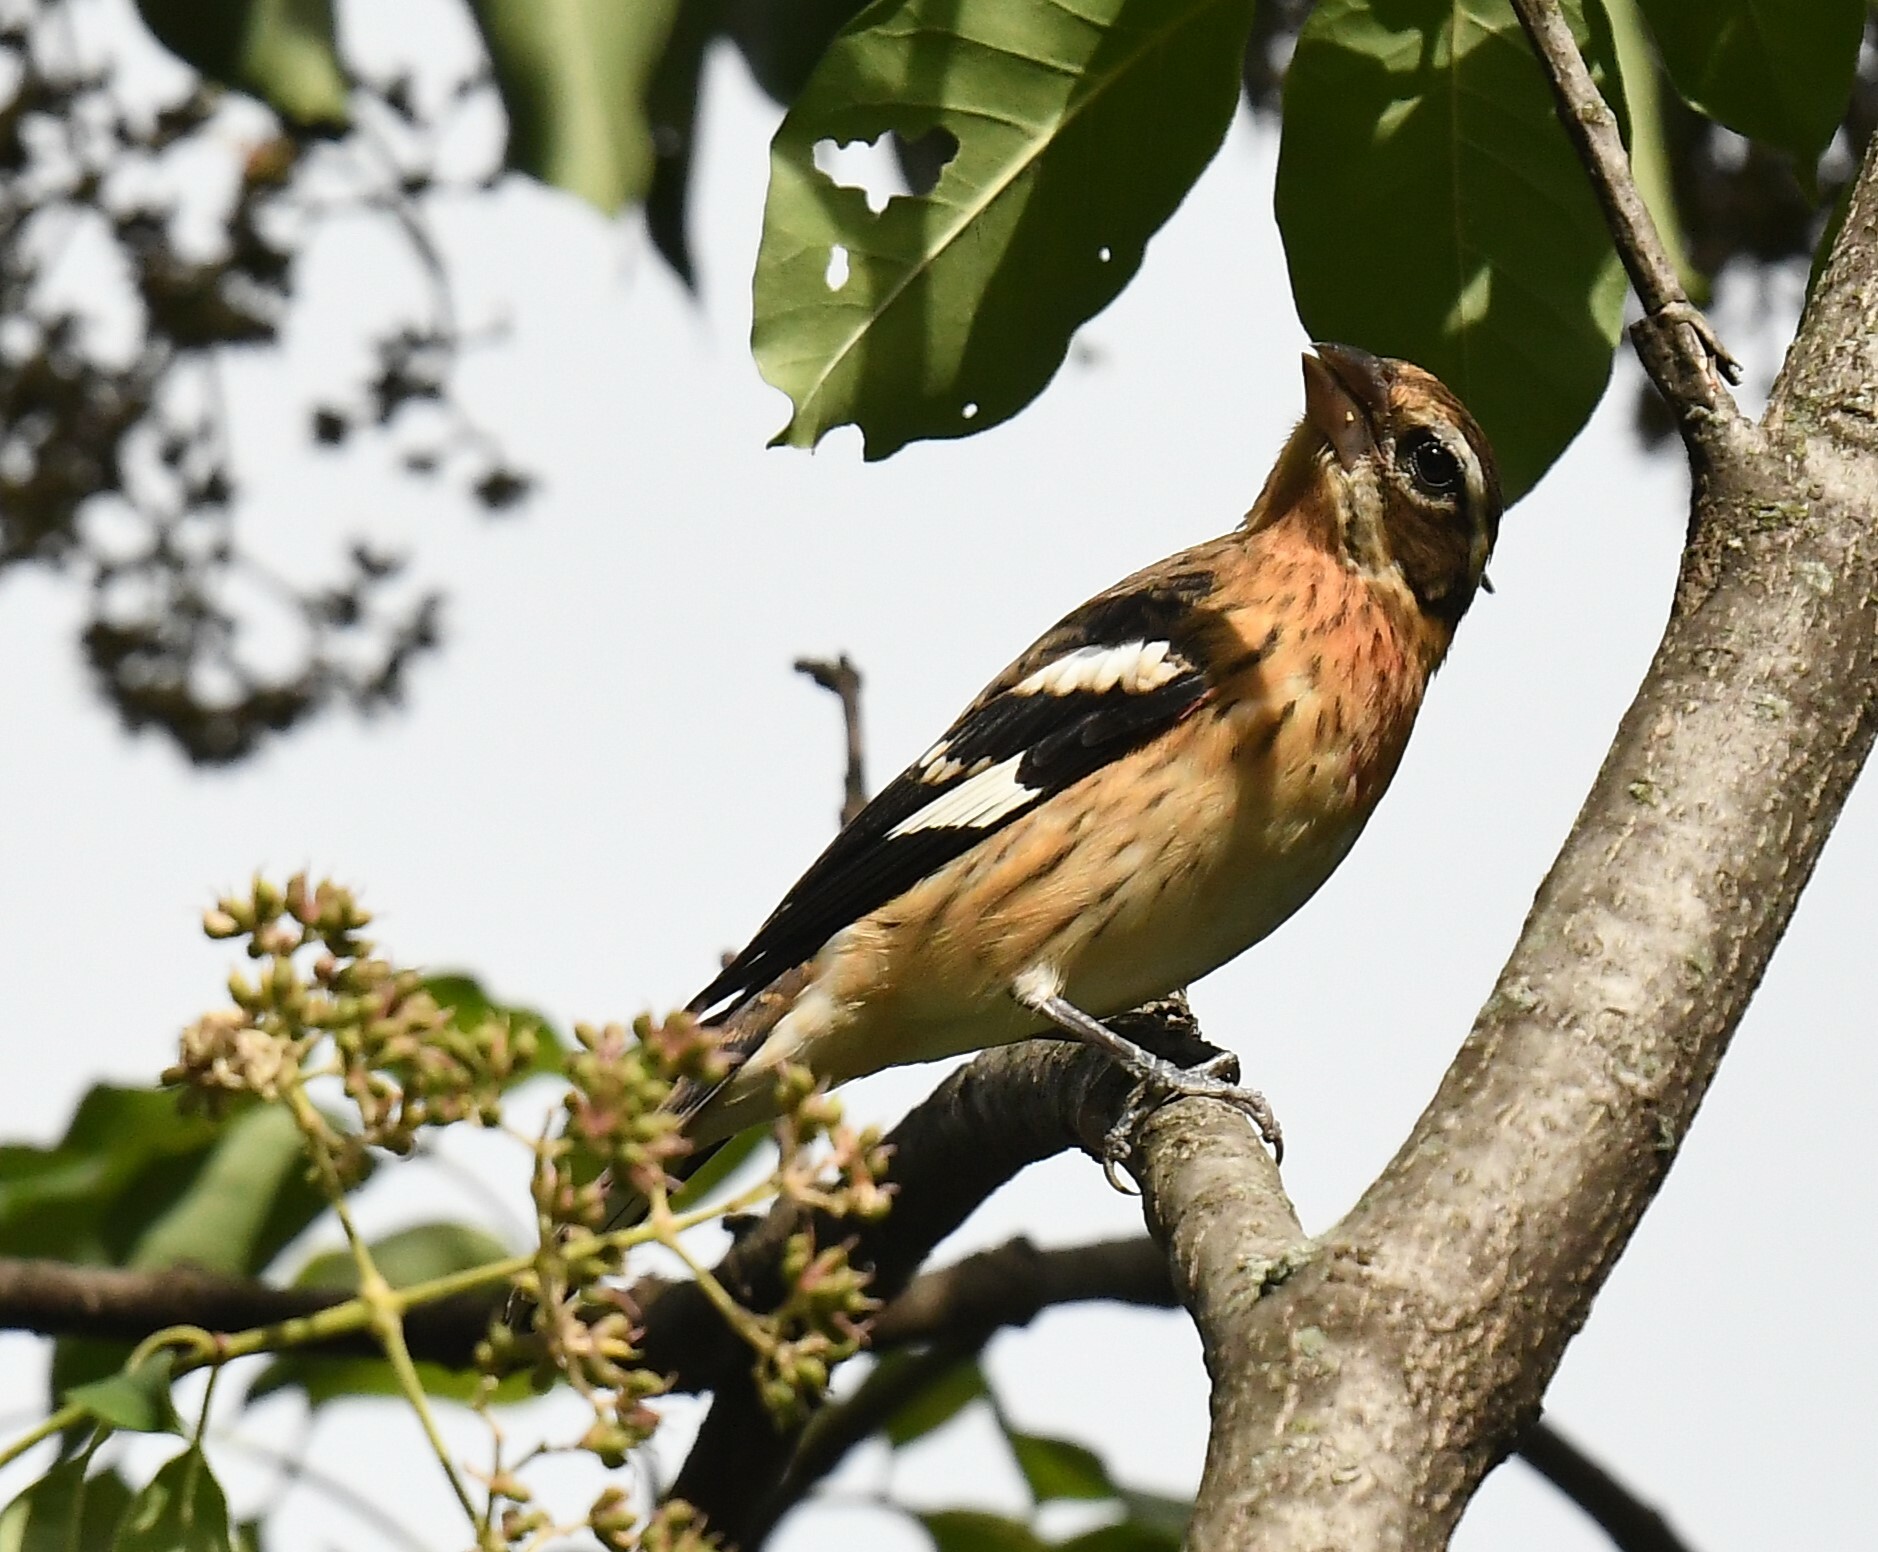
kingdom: Animalia
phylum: Chordata
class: Aves
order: Passeriformes
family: Cardinalidae
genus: Pheucticus
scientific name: Pheucticus ludovicianus
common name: Rose-breasted grosbeak
